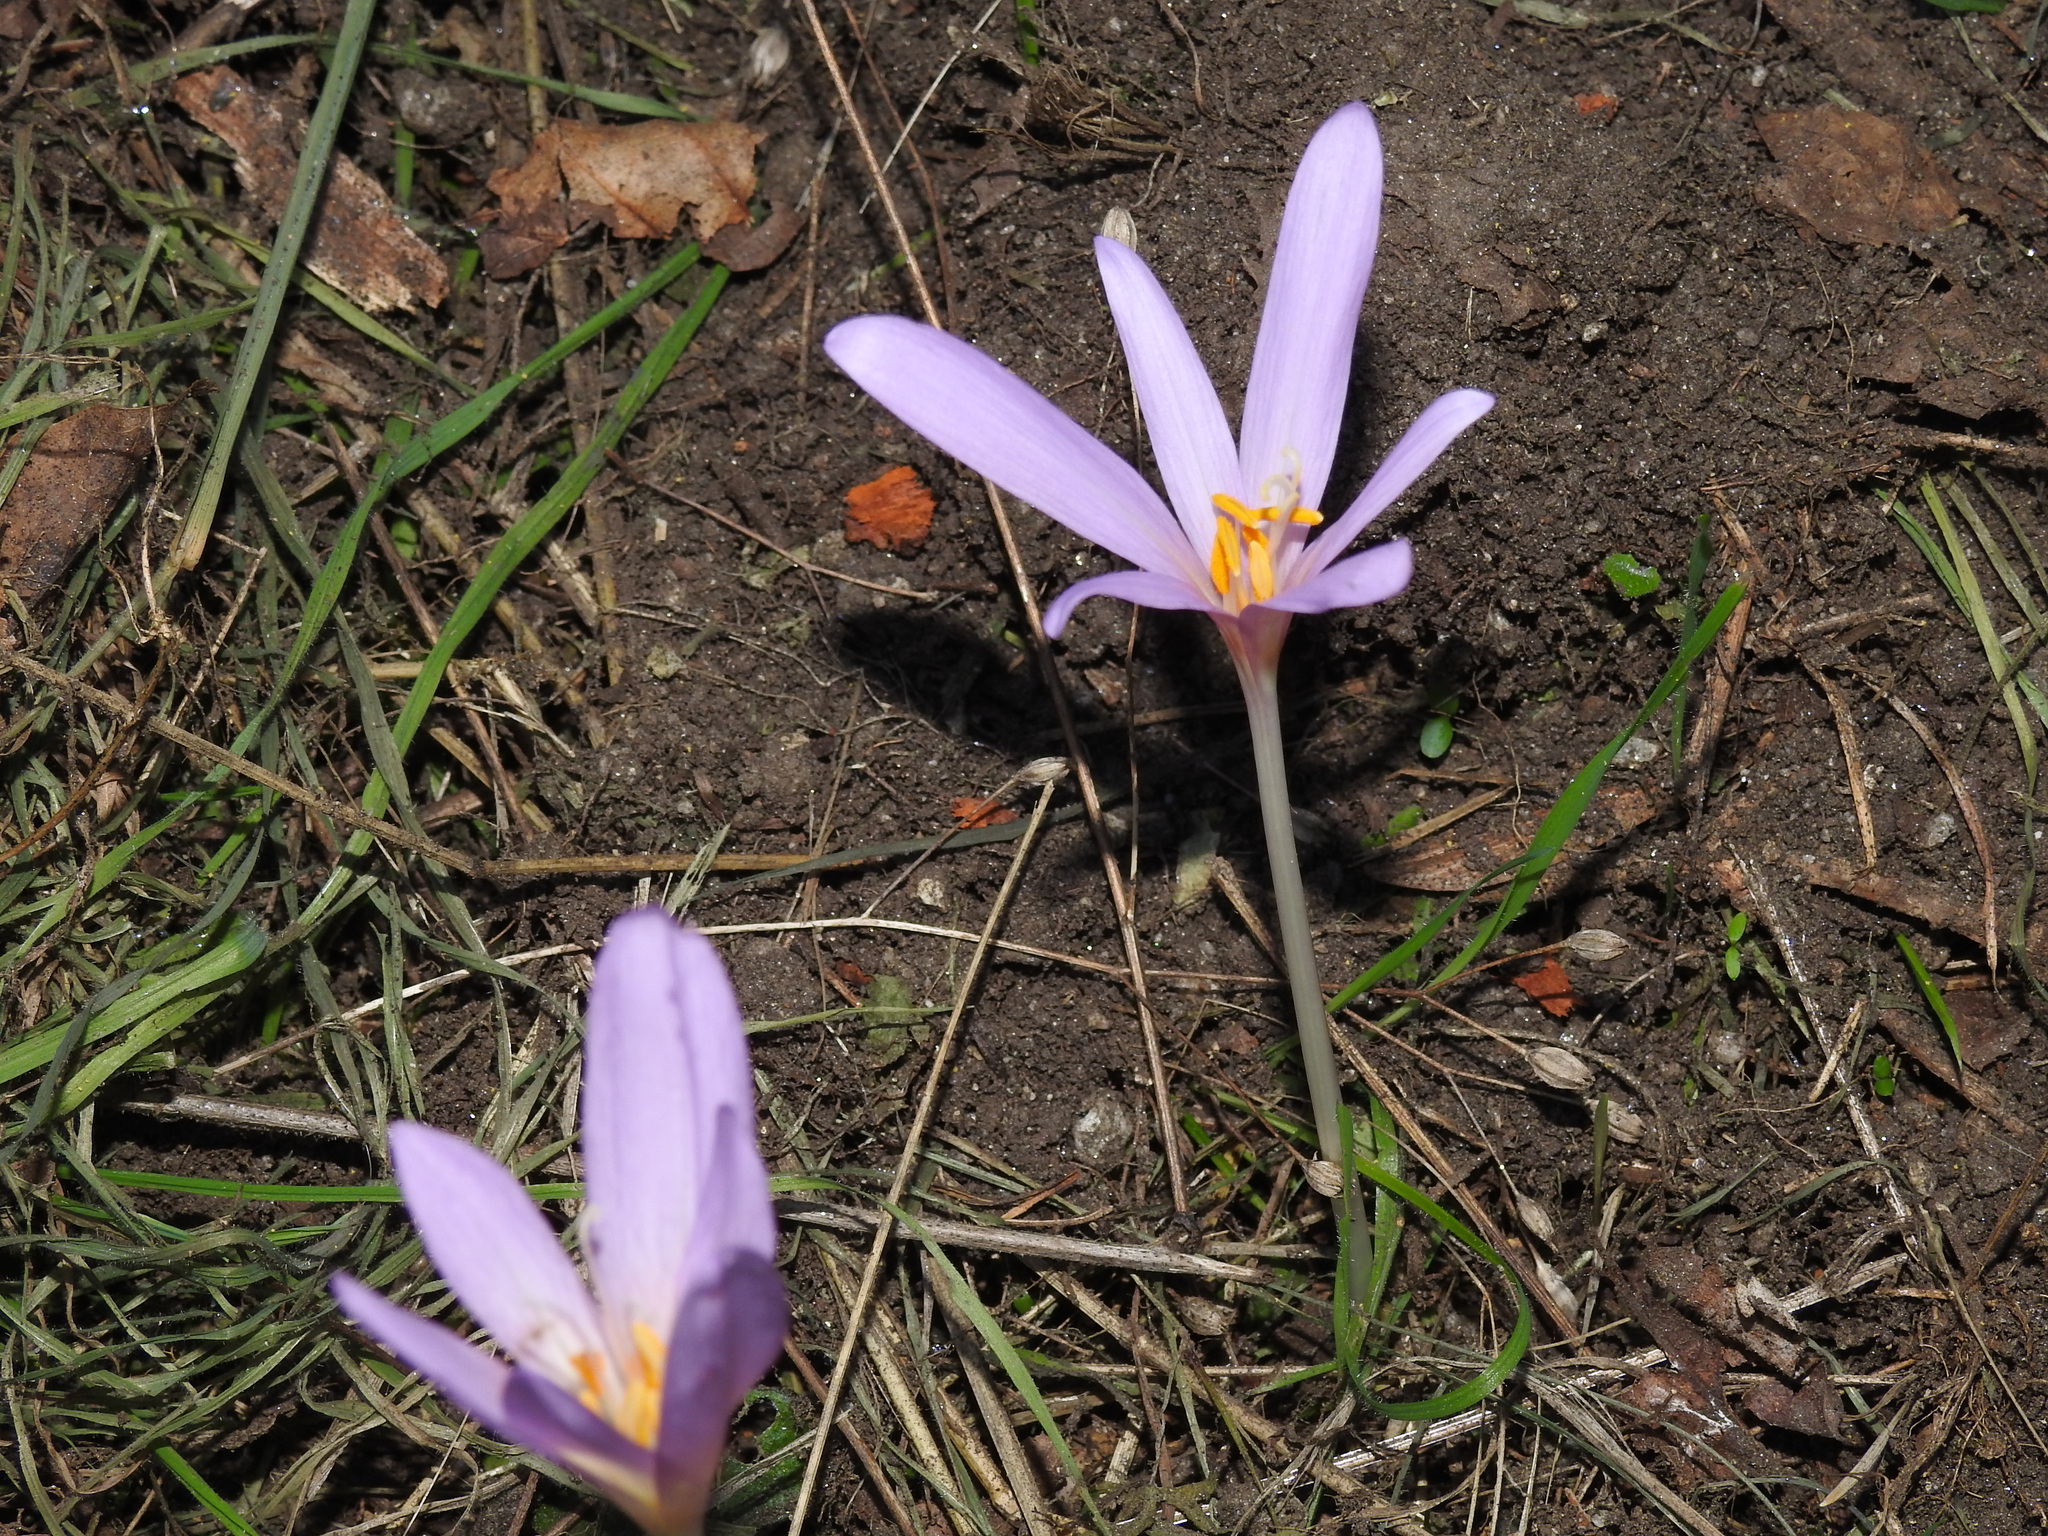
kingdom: Plantae
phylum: Tracheophyta
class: Liliopsida
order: Liliales
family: Colchicaceae
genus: Colchicum
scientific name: Colchicum autumnale
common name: Autumn crocus
